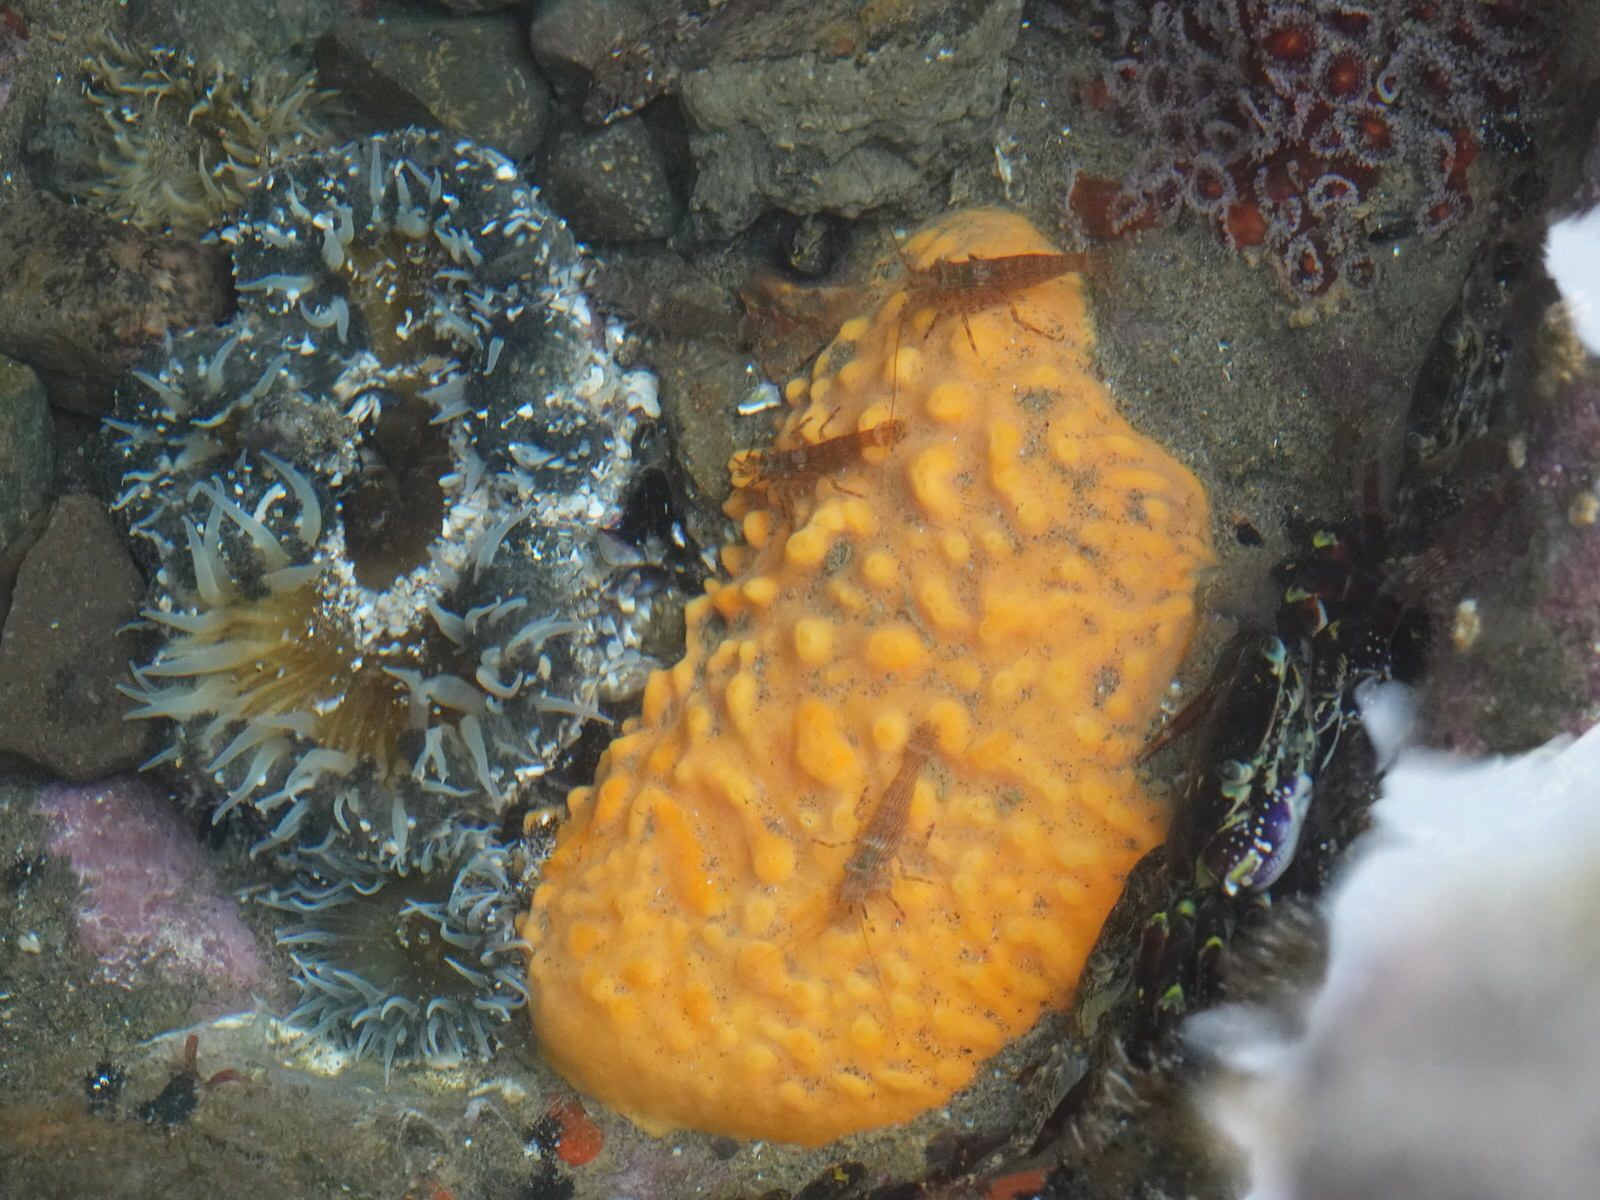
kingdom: Animalia
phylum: Cnidaria
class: Anthozoa
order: Actiniaria
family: Actiniidae
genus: Oulactis
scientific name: Oulactis magna
